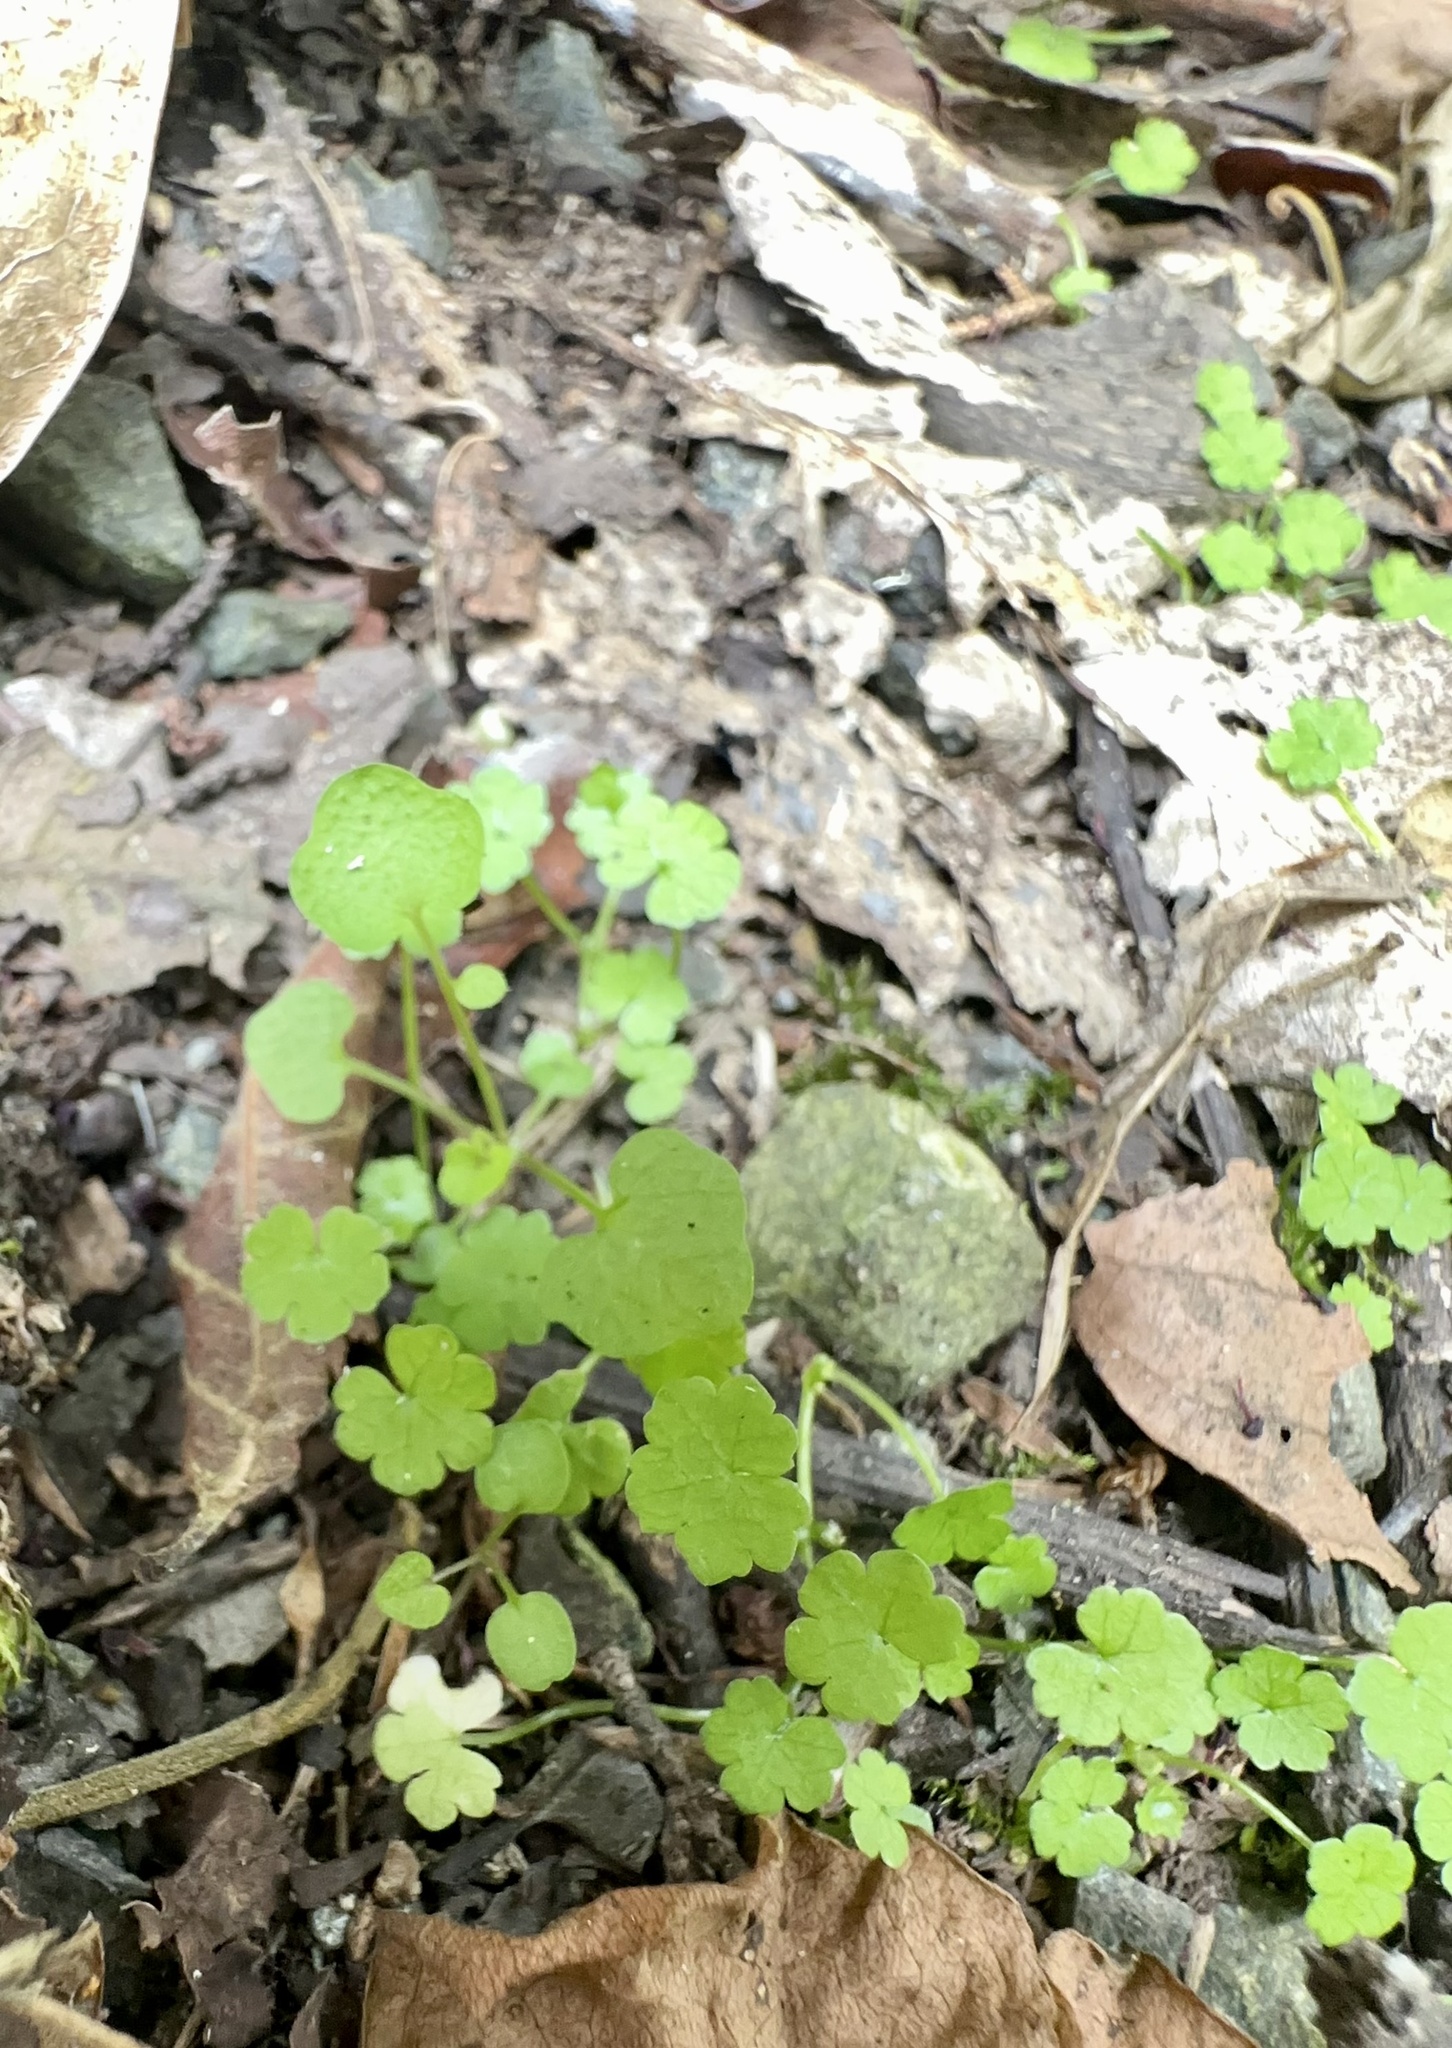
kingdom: Plantae
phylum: Tracheophyta
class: Magnoliopsida
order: Apiales
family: Araliaceae
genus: Hydrocotyle
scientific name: Hydrocotyle heteromeria
